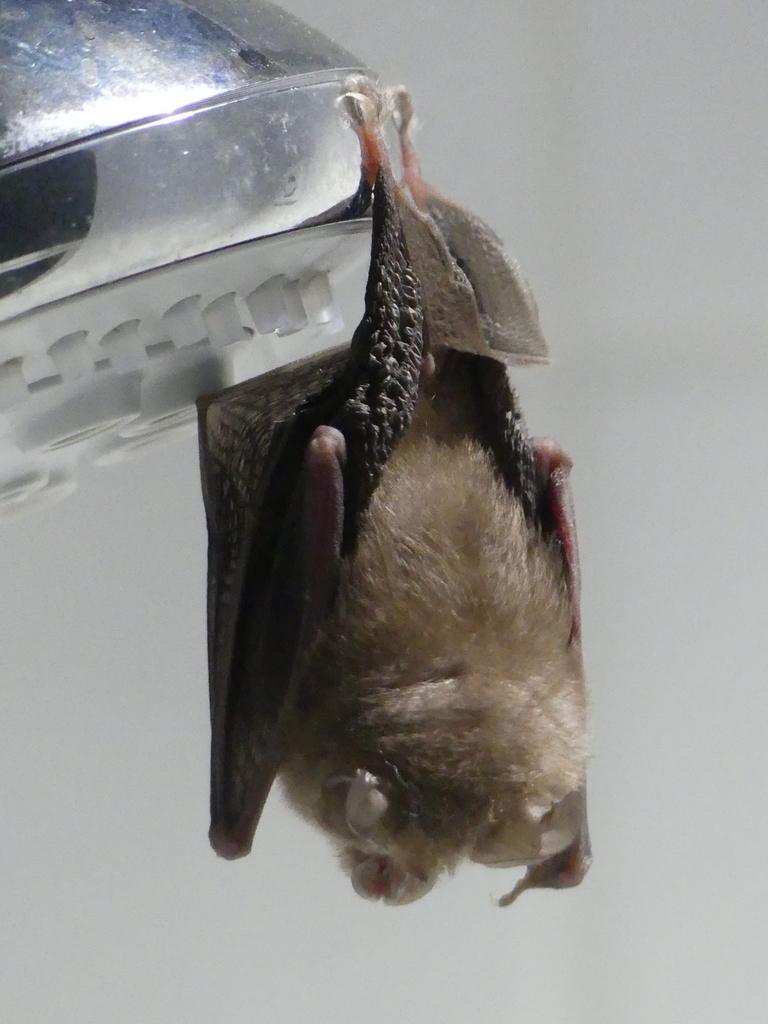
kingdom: Animalia
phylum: Chordata
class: Mammalia
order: Chiroptera
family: Rhinolophidae
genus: Rhinolophus
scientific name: Rhinolophus hipposideros
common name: Lesser horseshoe bat
